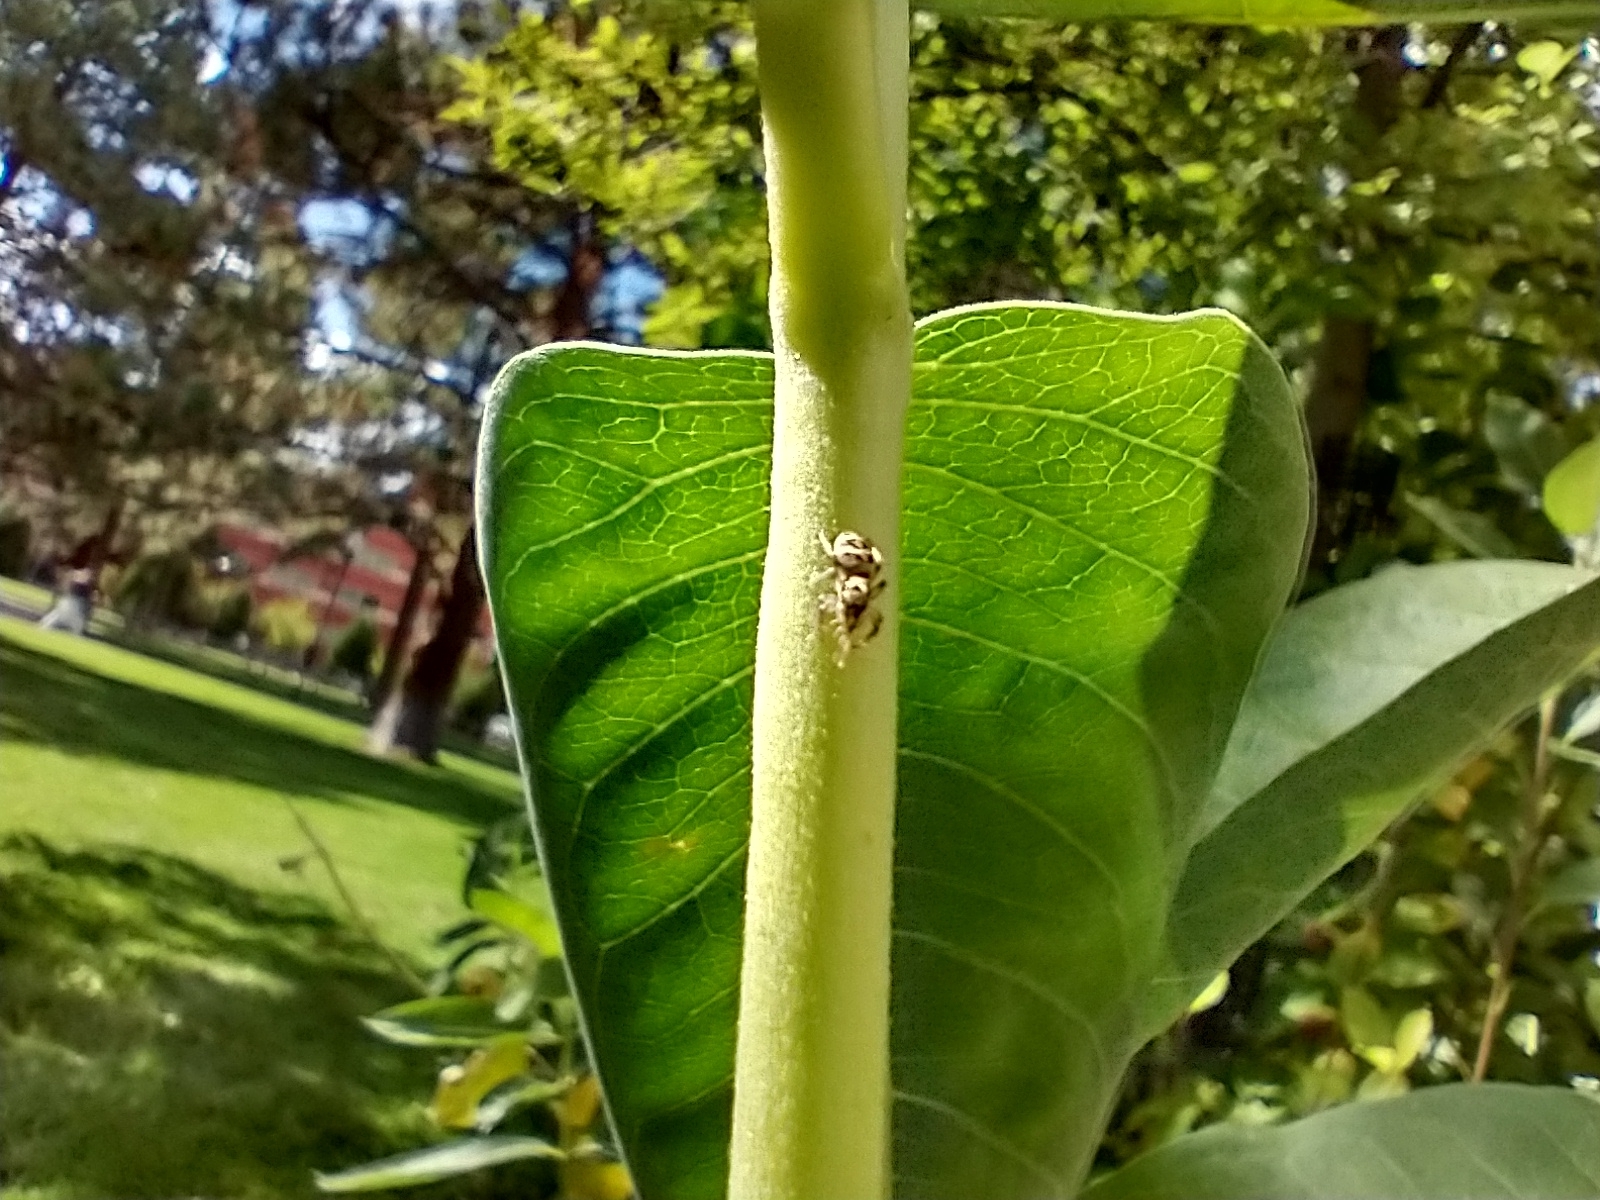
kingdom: Animalia
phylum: Arthropoda
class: Arachnida
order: Araneae
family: Salticidae
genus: Salticus
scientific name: Salticus scenicus
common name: Zebra jumper
